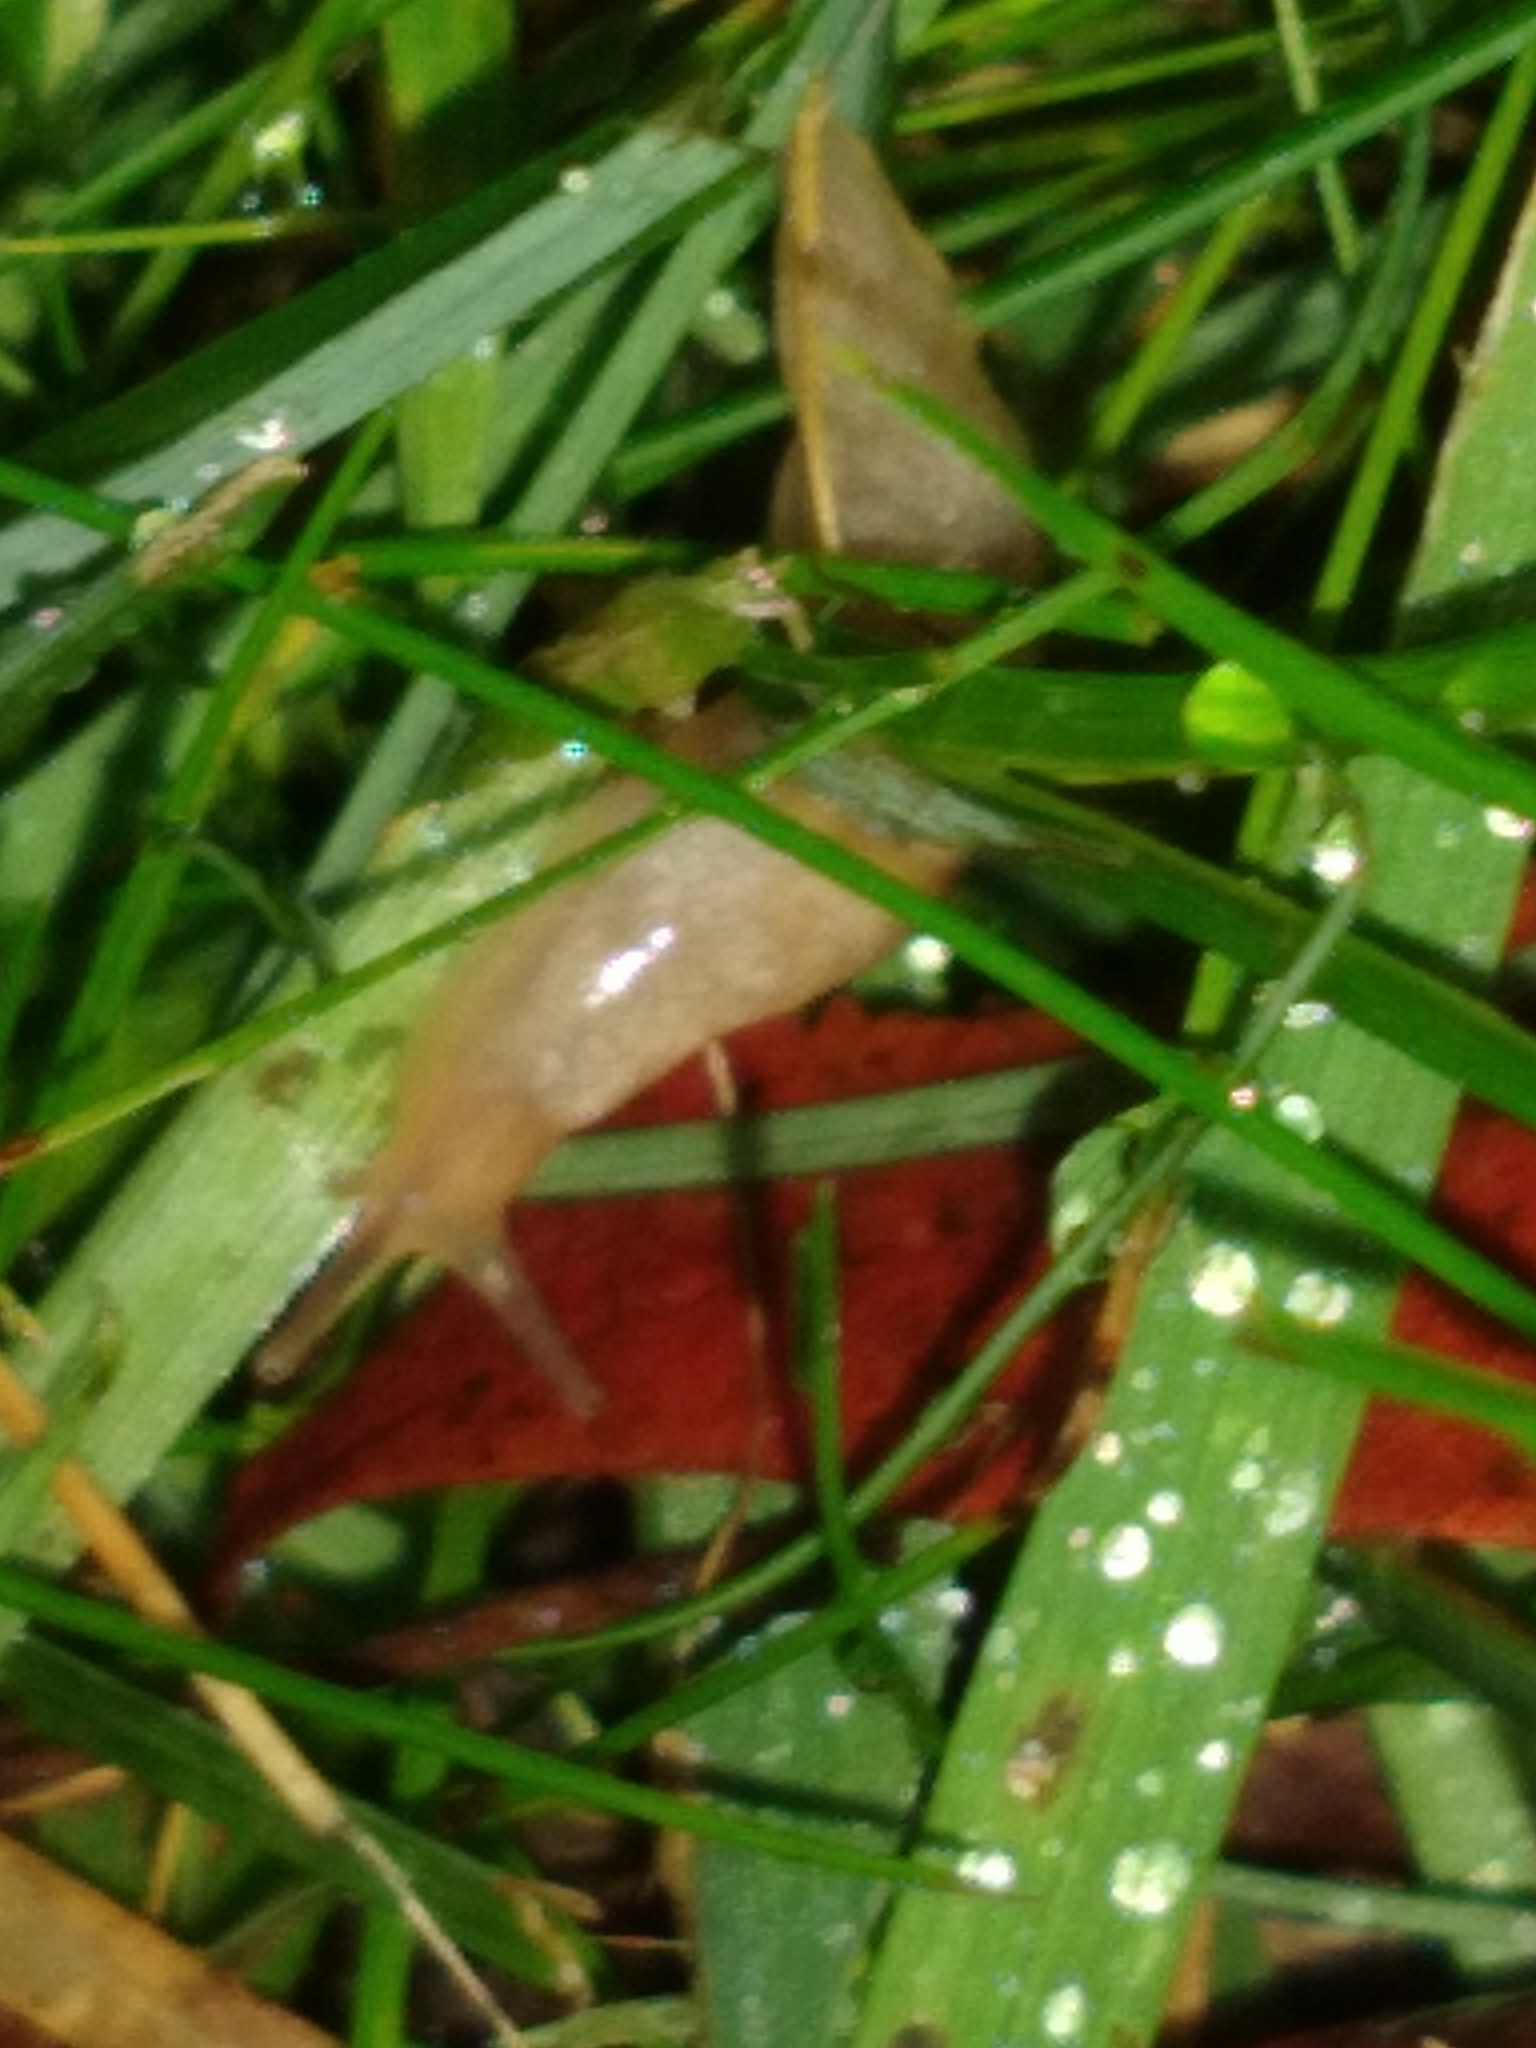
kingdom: Animalia
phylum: Mollusca
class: Gastropoda
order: Stylommatophora
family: Agriolimacidae
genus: Deroceras
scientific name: Deroceras reticulatum
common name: Gray field slug
